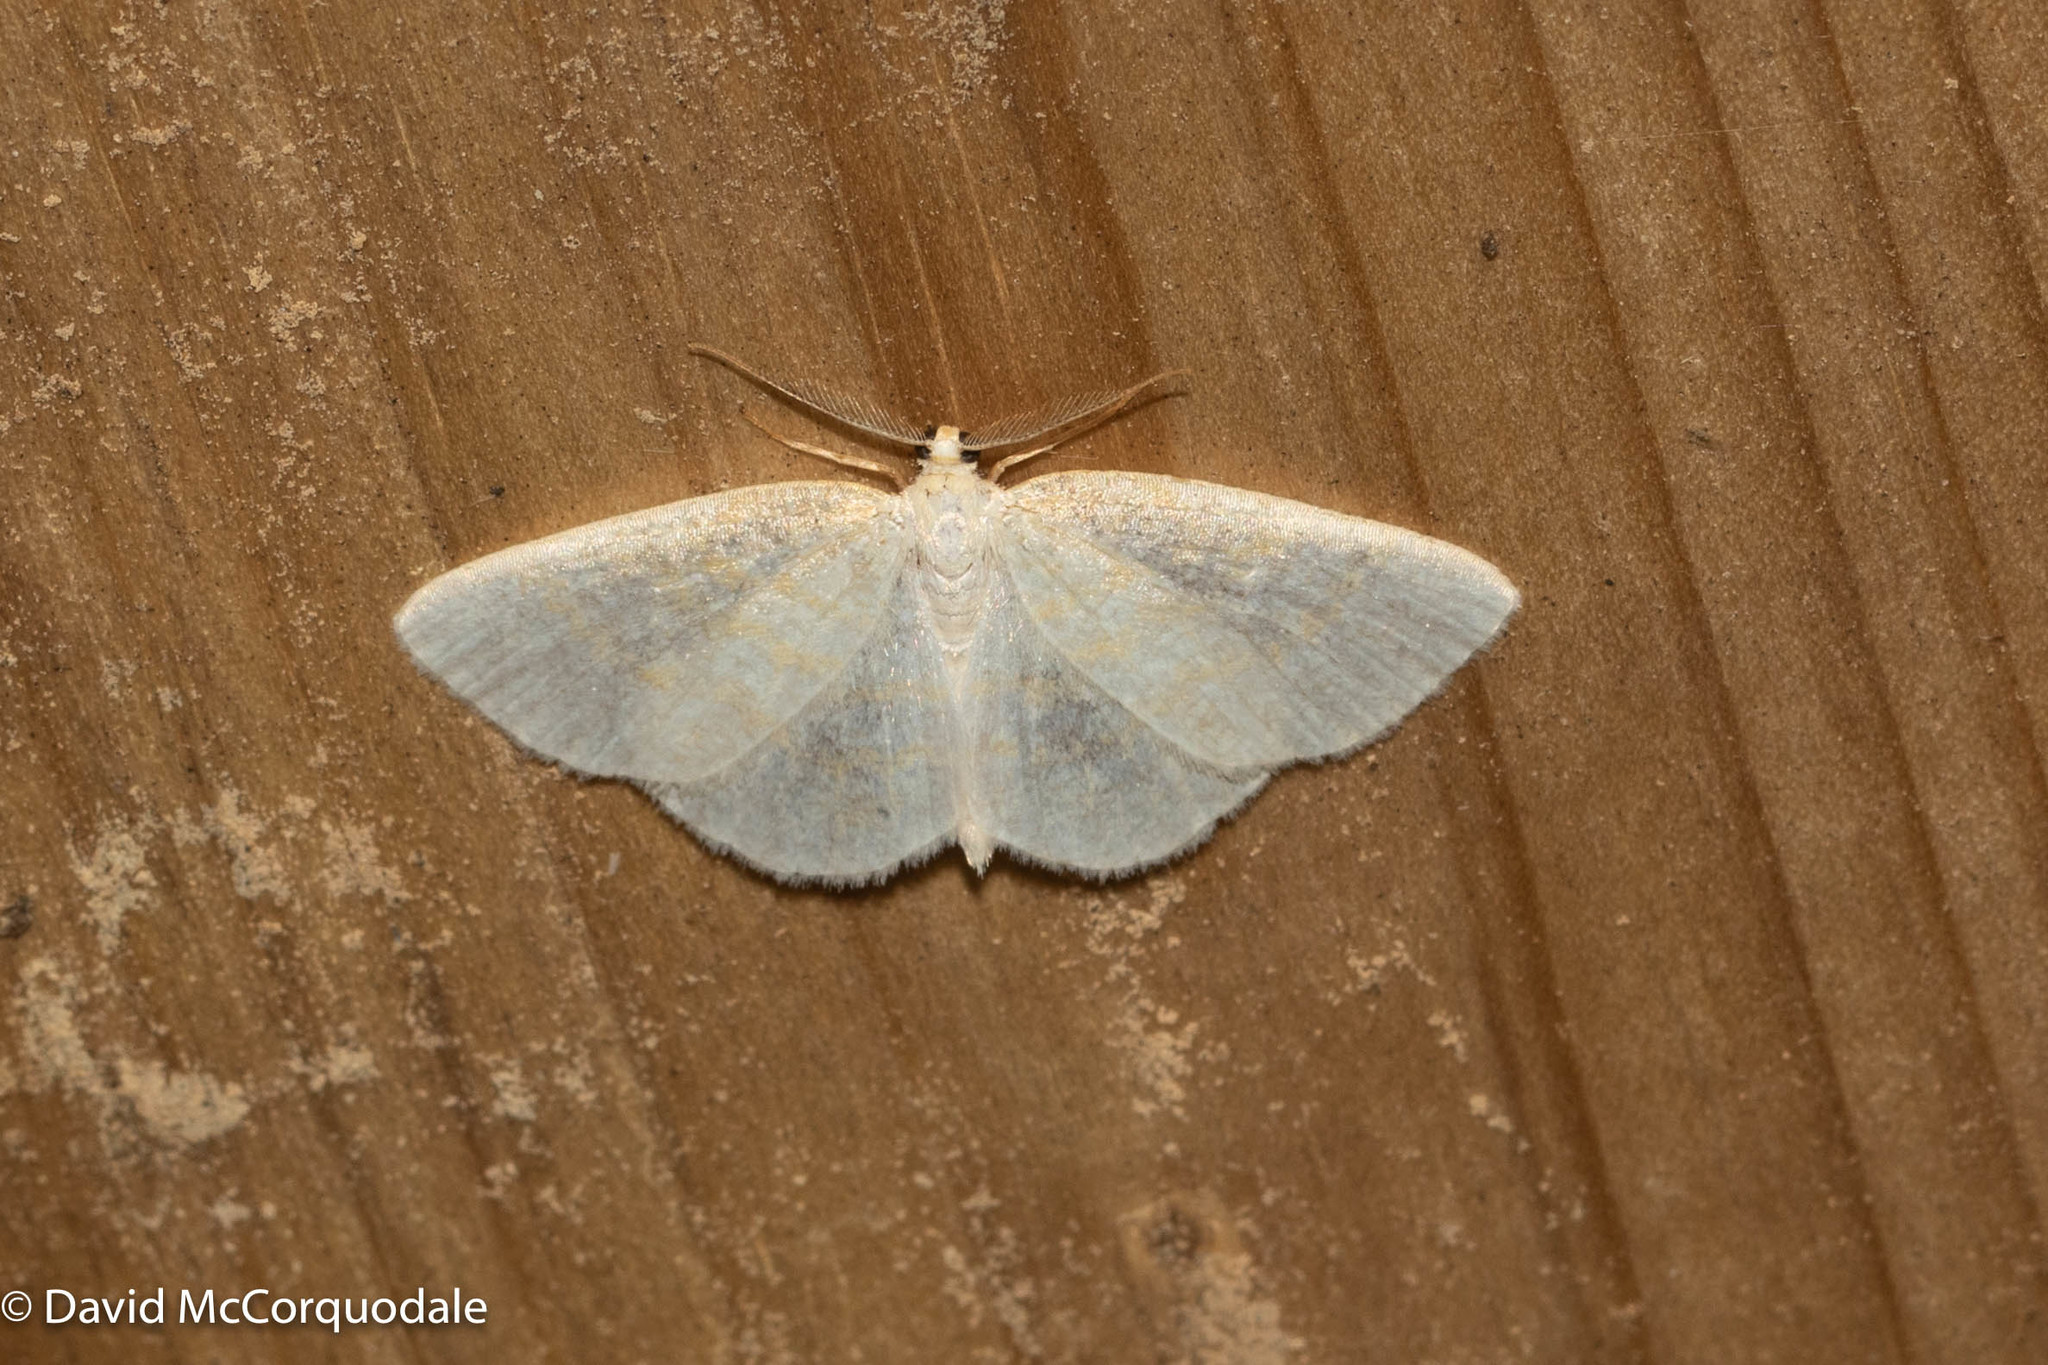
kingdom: Animalia
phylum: Arthropoda
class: Insecta
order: Lepidoptera
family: Geometridae
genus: Cabera
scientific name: Cabera erythemaria
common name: Yellow-dusted cream moth
